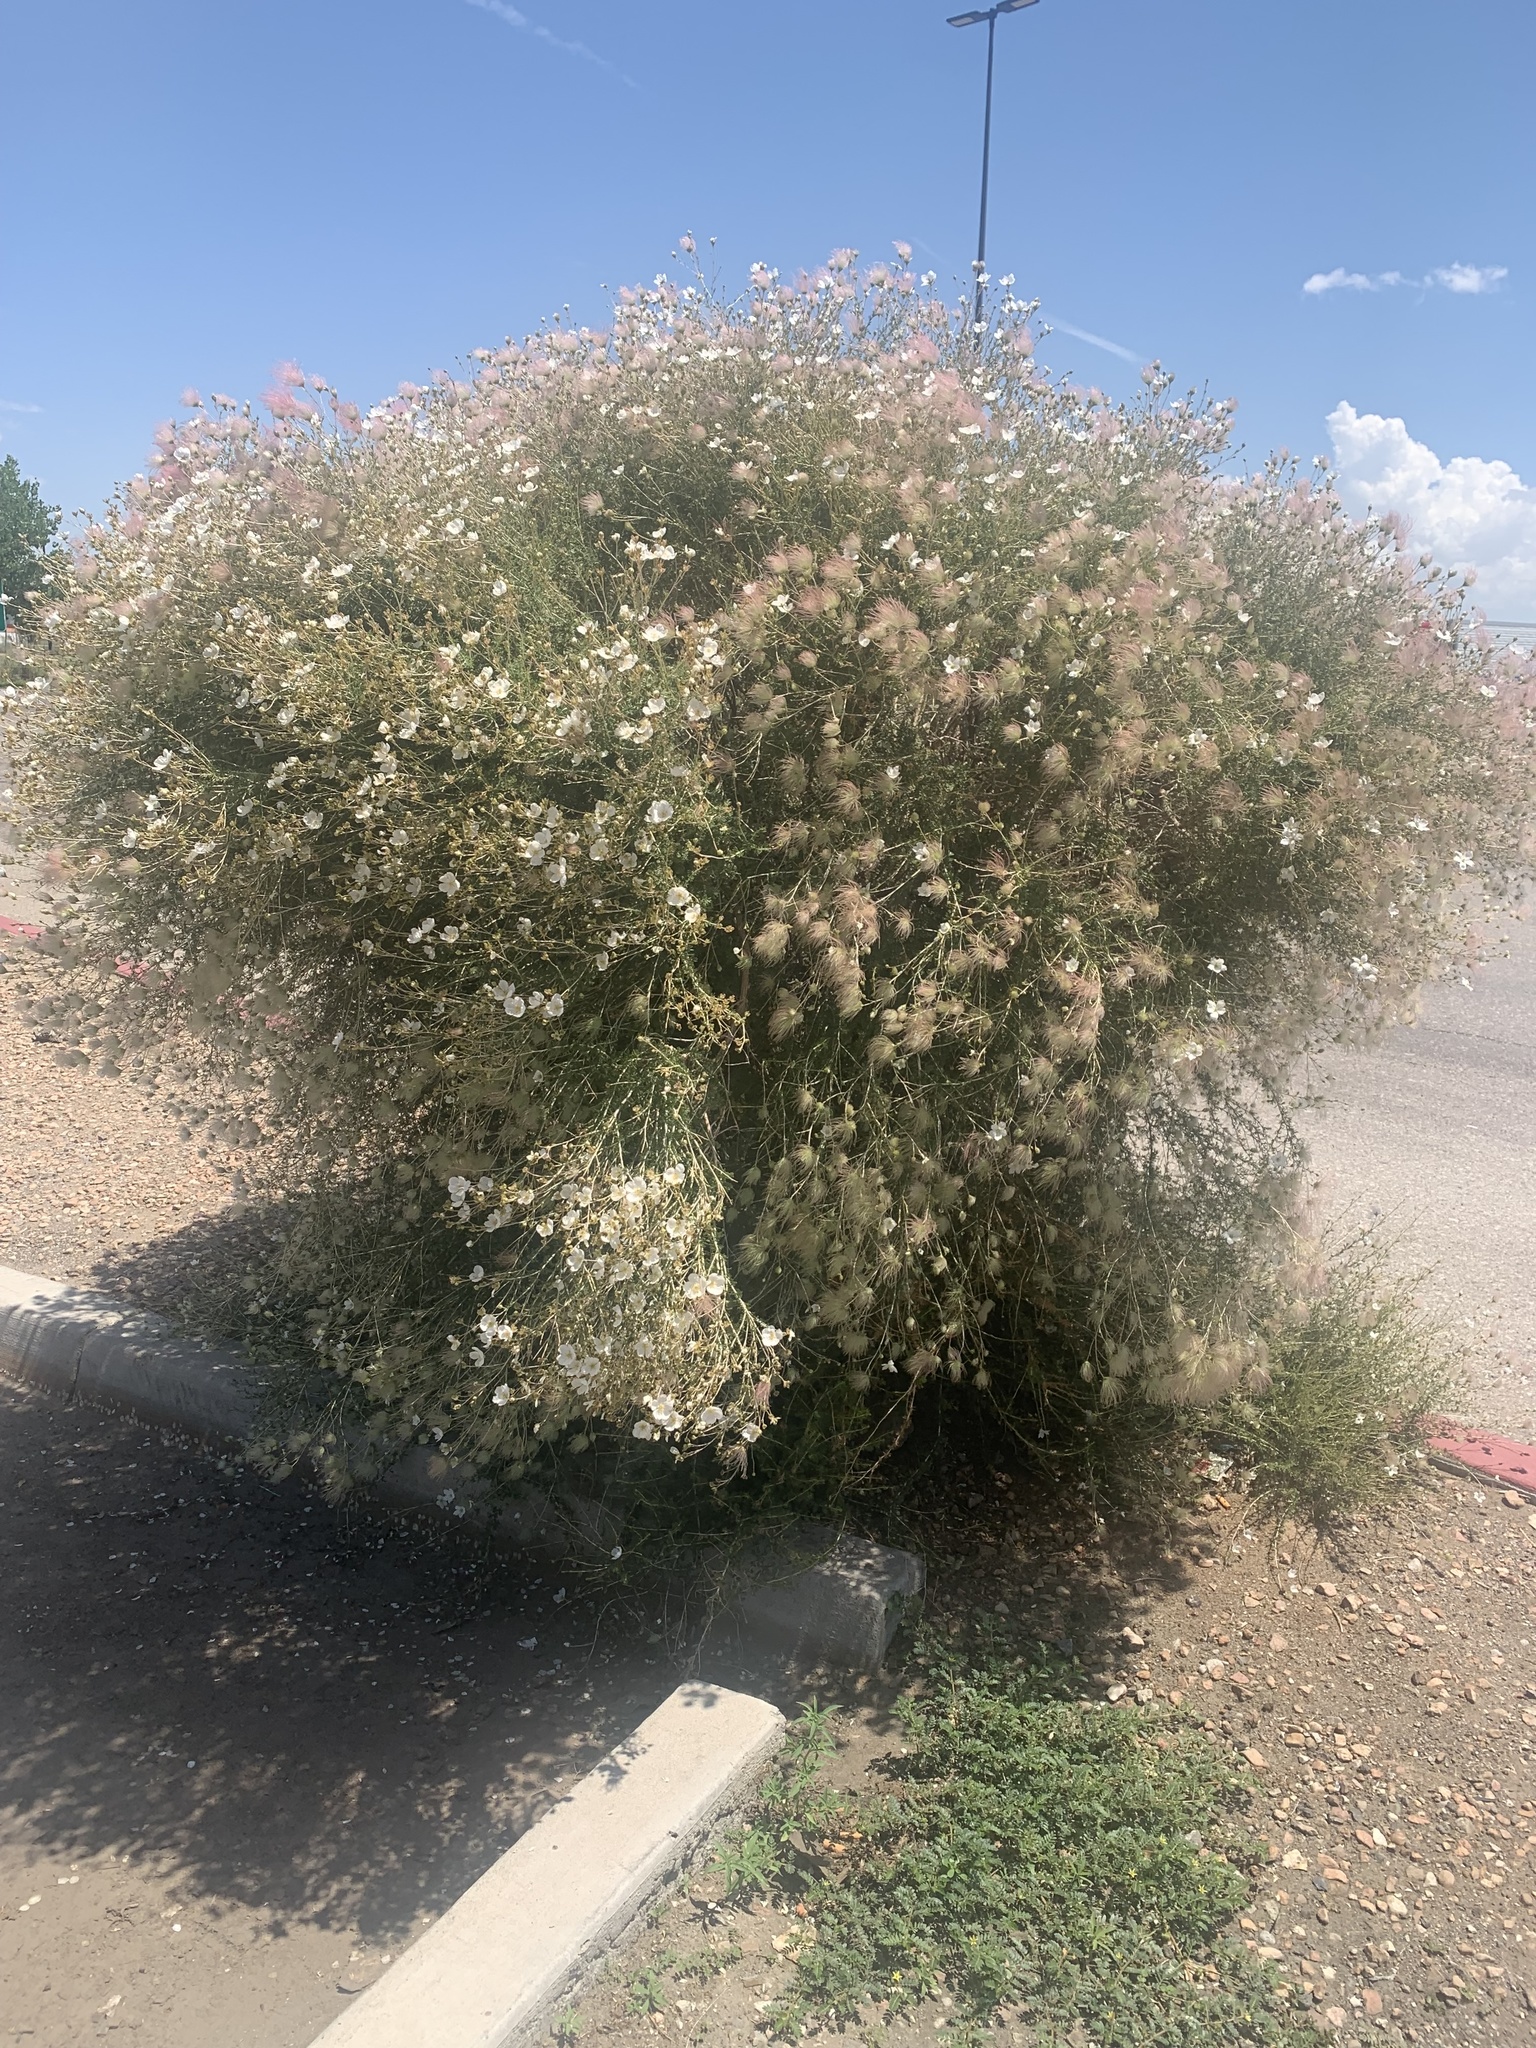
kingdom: Plantae
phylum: Tracheophyta
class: Magnoliopsida
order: Rosales
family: Rosaceae
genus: Fallugia
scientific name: Fallugia paradoxa
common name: Apache-plume
